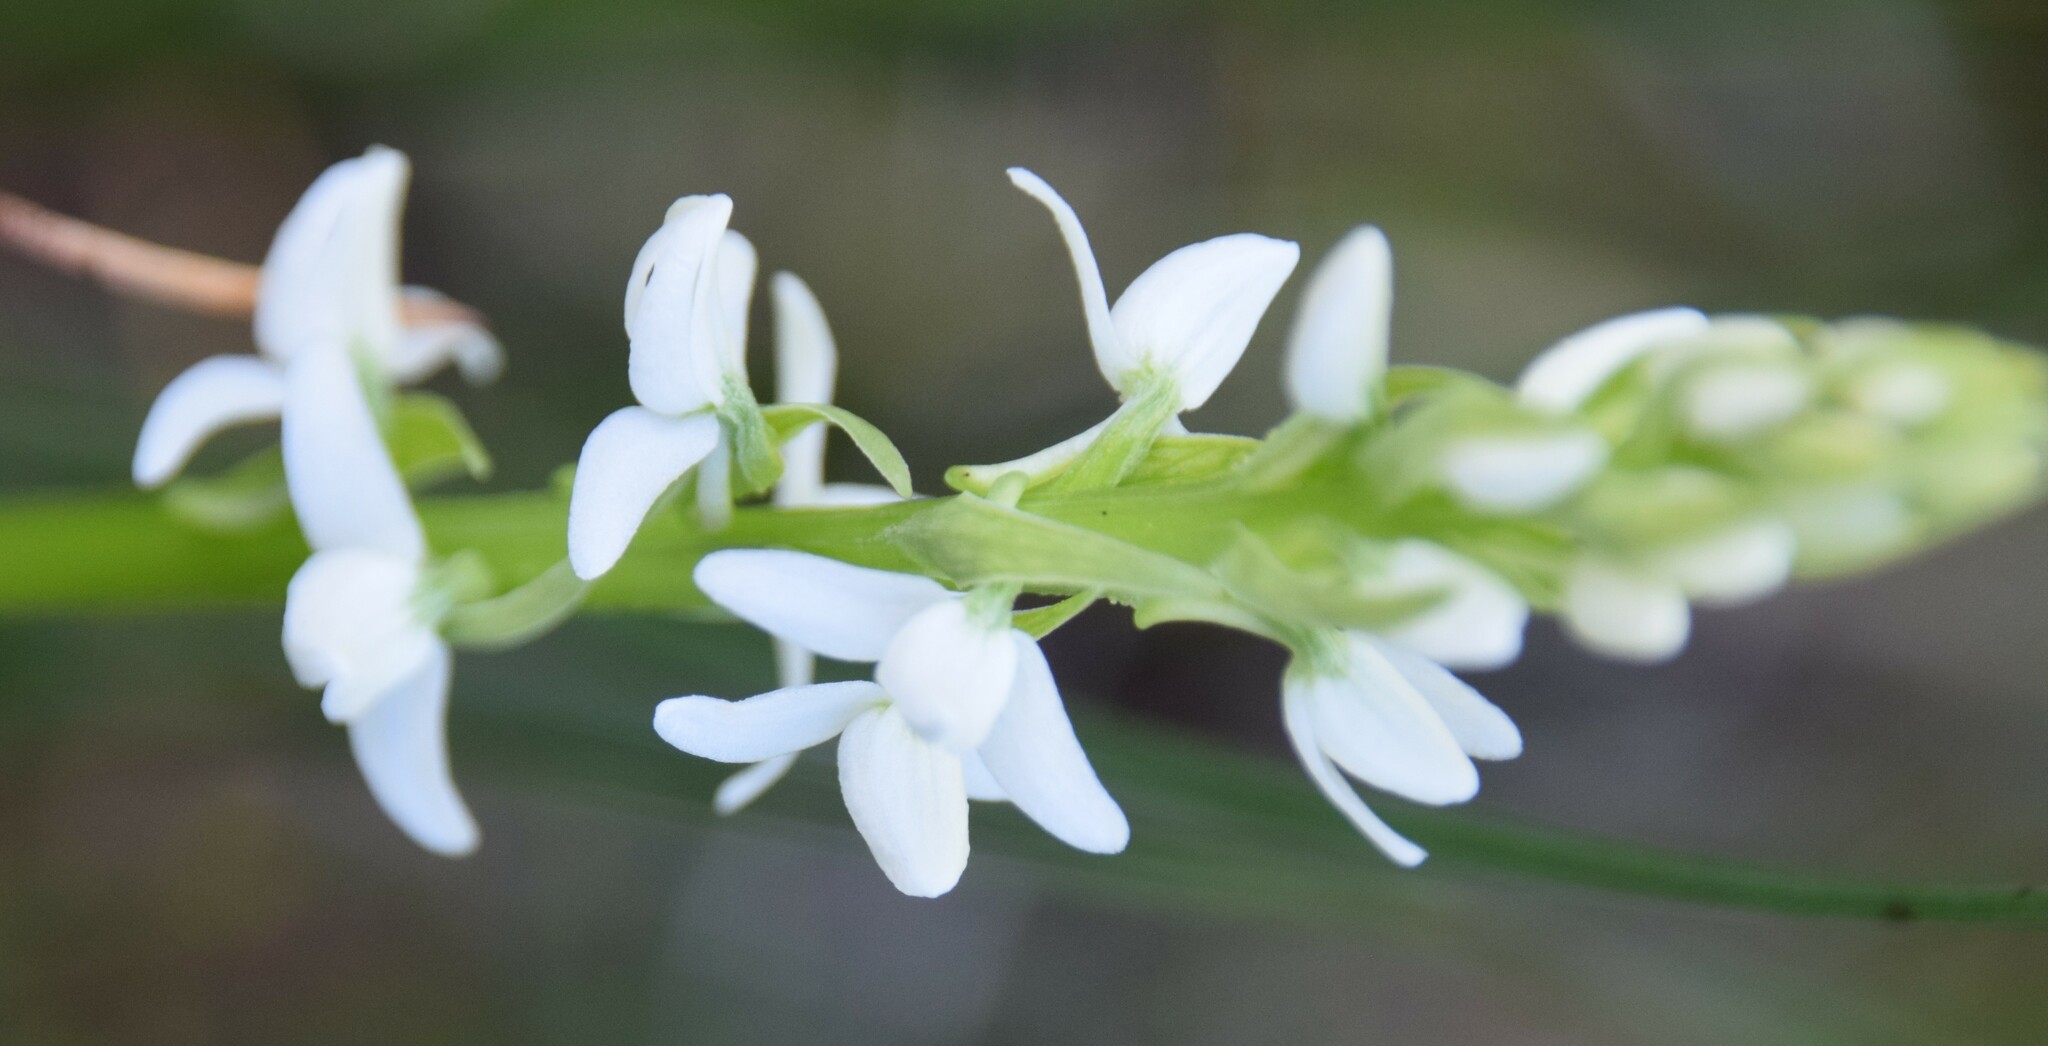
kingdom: Plantae
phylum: Tracheophyta
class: Liliopsida
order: Asparagales
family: Orchidaceae
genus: Platanthera
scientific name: Platanthera dilatata
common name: Bog candles
